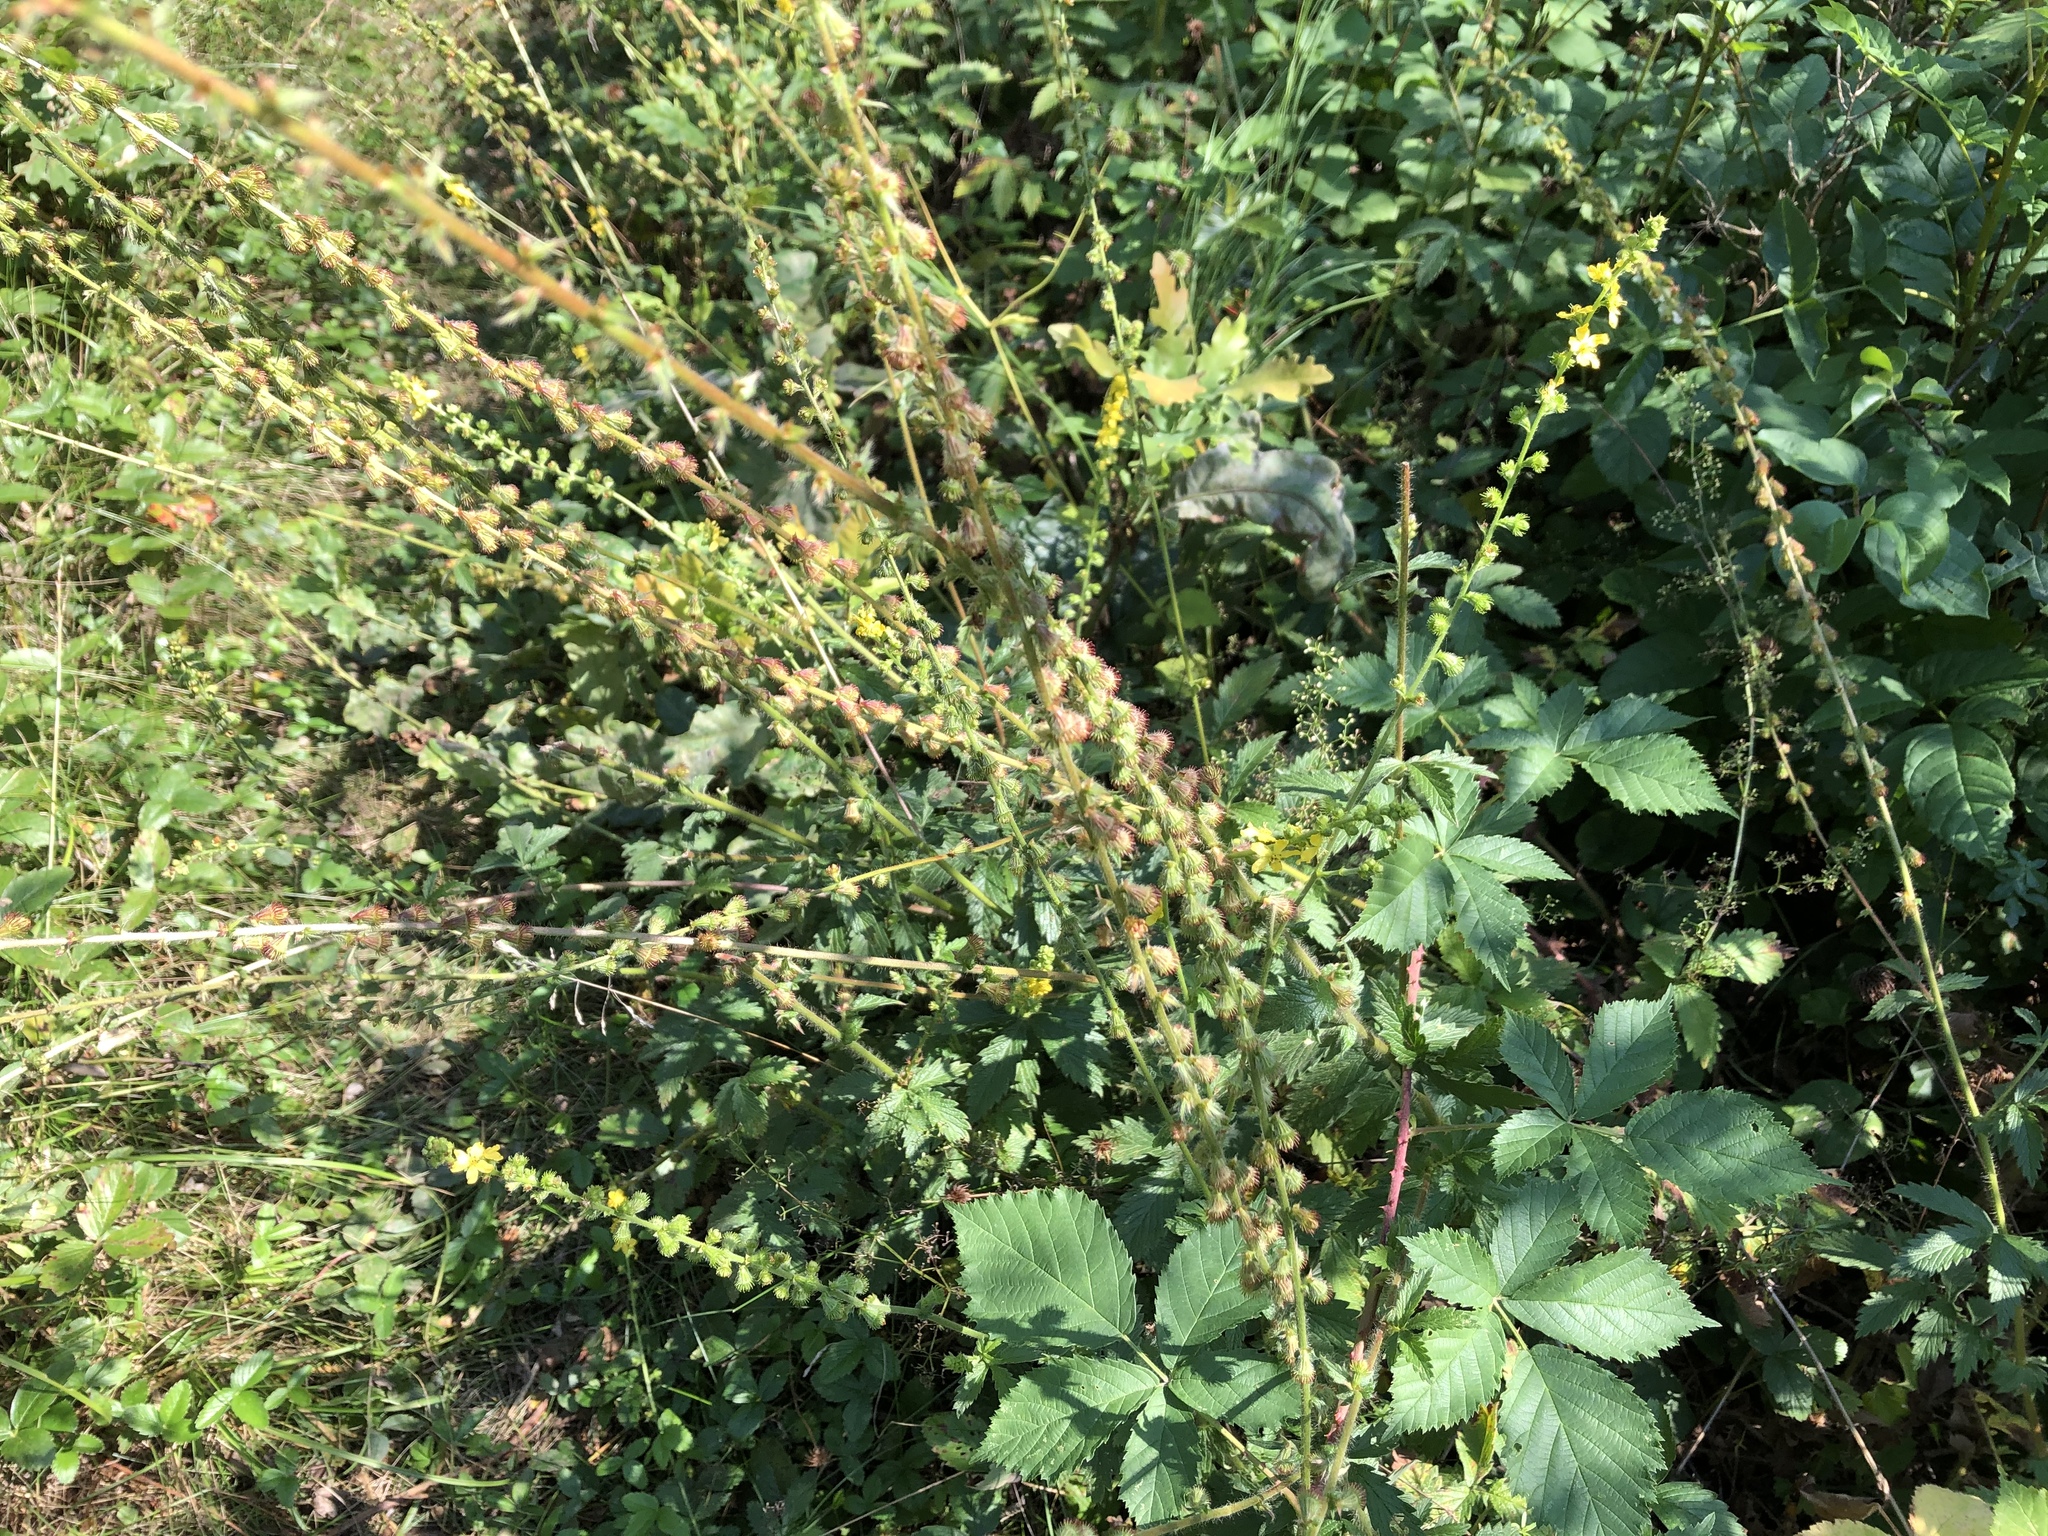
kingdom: Plantae
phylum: Tracheophyta
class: Magnoliopsida
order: Rosales
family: Rosaceae
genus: Agrimonia
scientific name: Agrimonia eupatoria
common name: Agrimony
